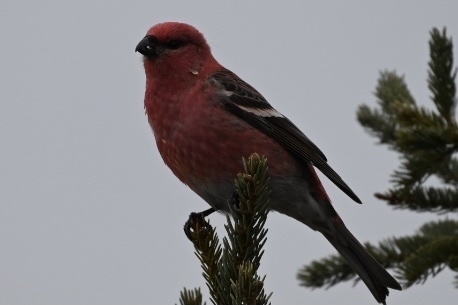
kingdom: Animalia
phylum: Chordata
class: Aves
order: Passeriformes
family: Fringillidae
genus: Pinicola
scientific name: Pinicola enucleator
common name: Pine grosbeak
